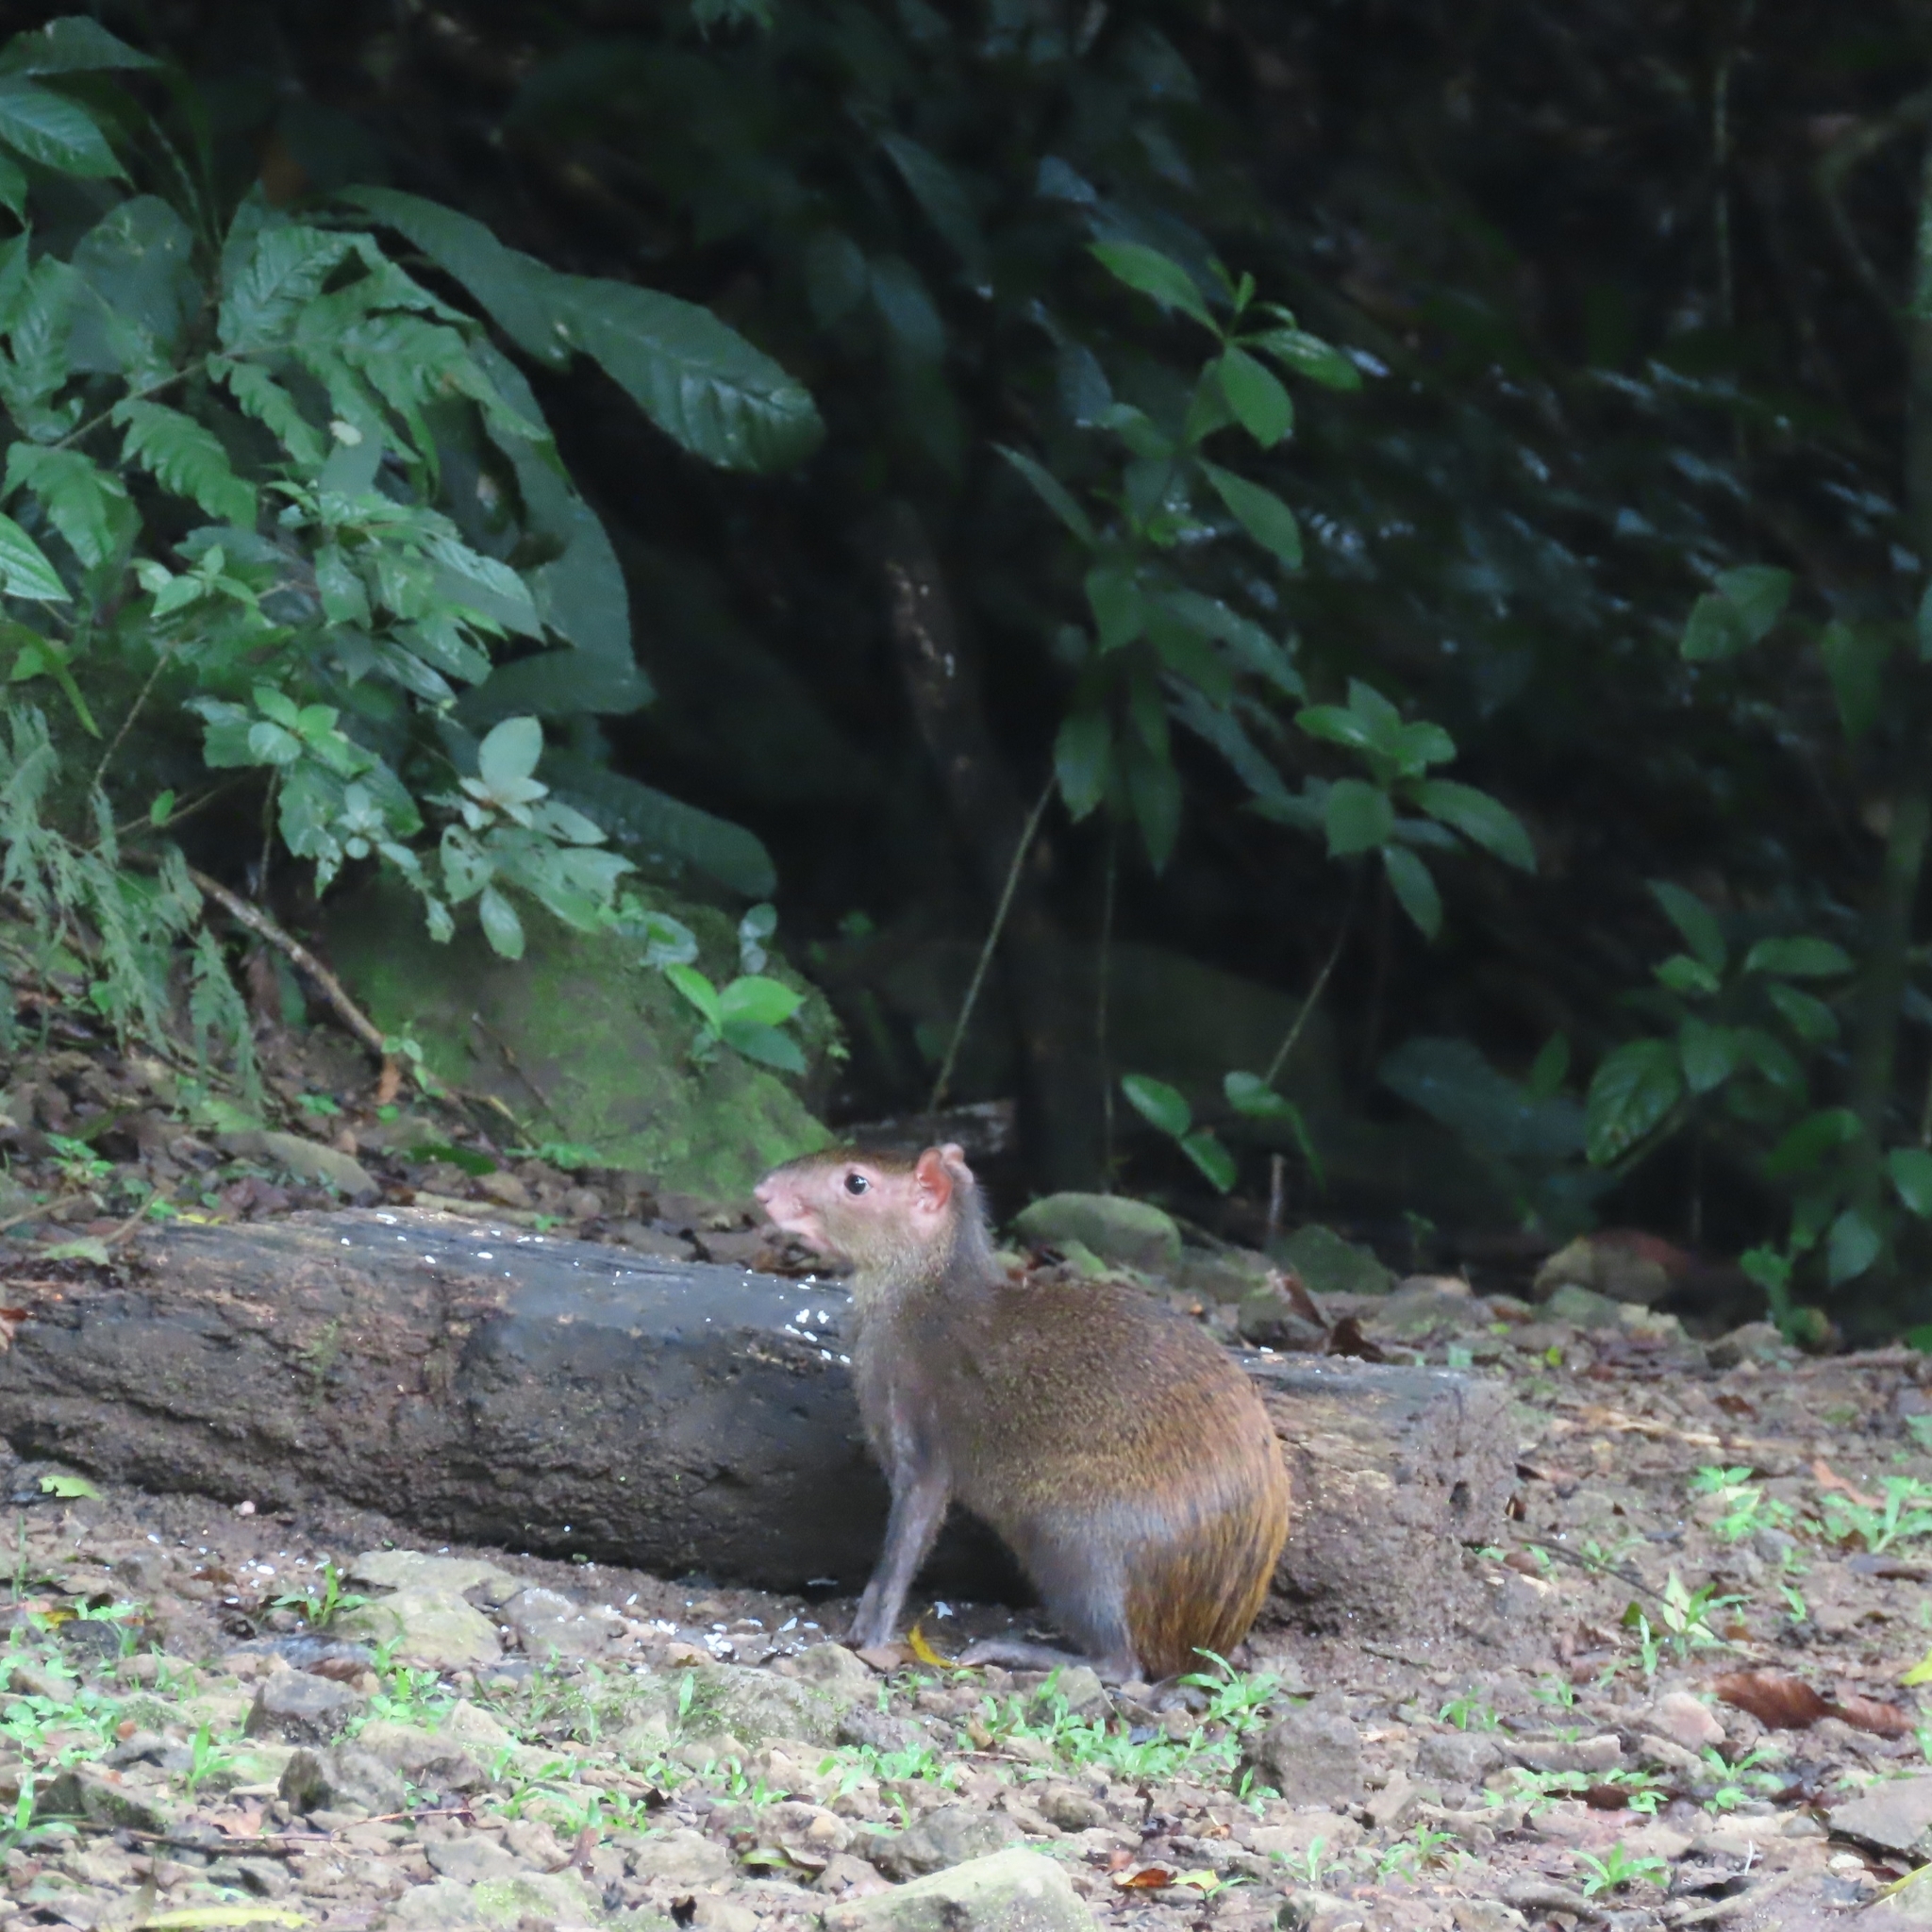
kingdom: Animalia
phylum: Chordata
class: Mammalia
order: Rodentia
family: Dasyproctidae
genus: Dasyprocta
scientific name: Dasyprocta punctata
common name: Central american agouti
